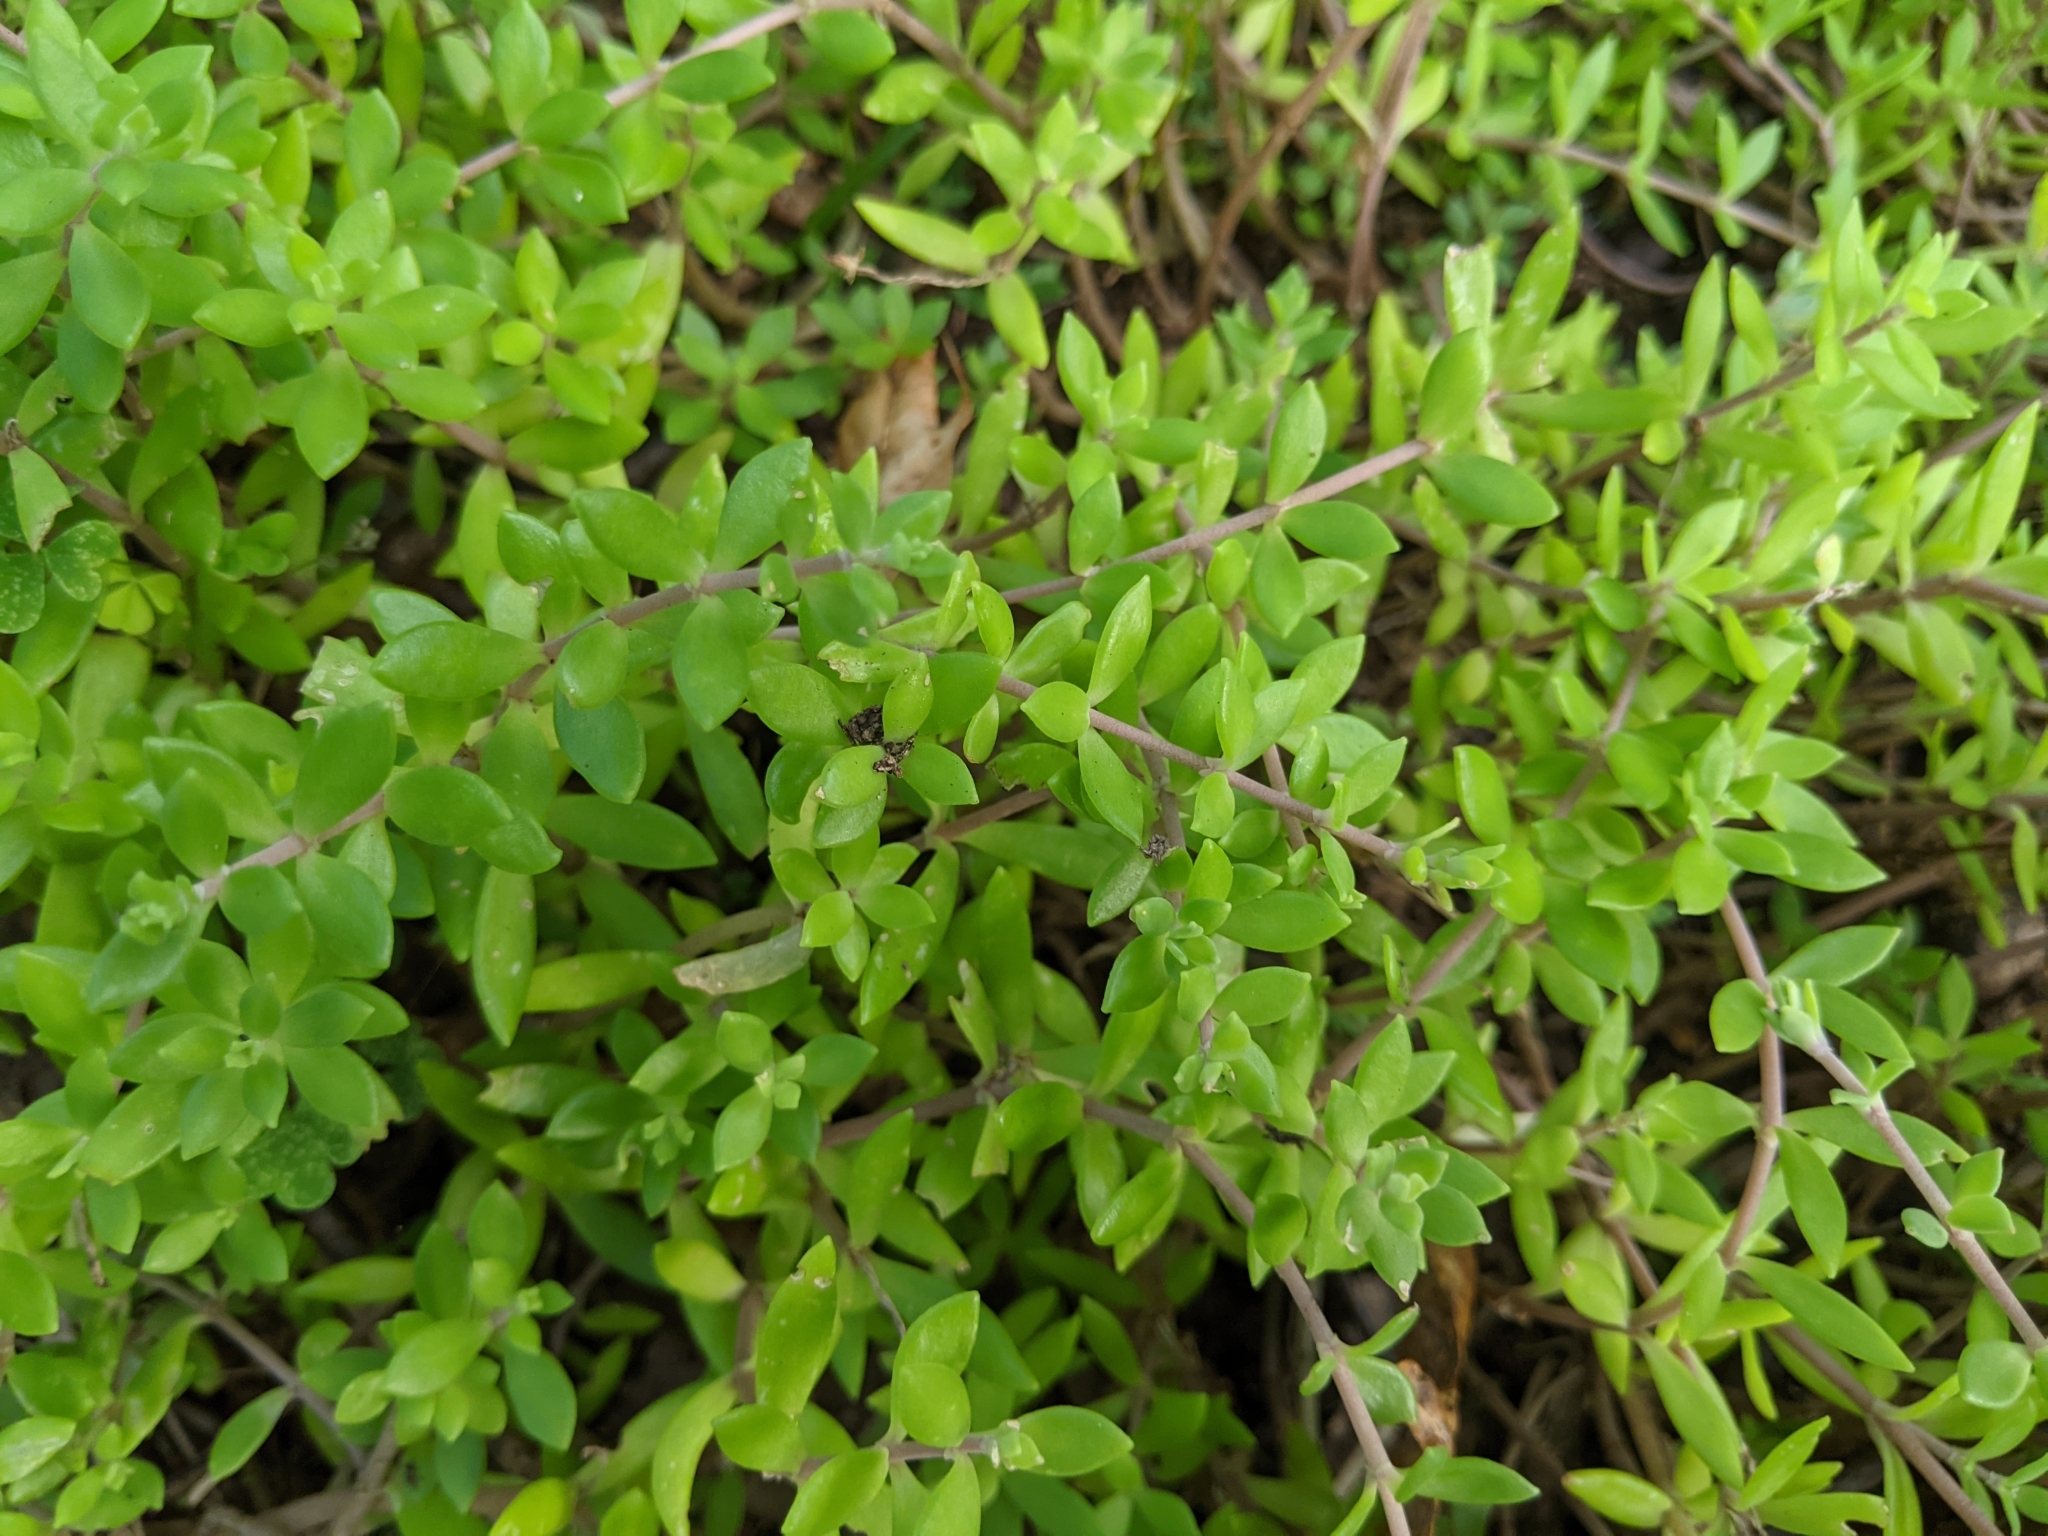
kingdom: Plantae
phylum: Tracheophyta
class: Magnoliopsida
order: Saxifragales
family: Crassulaceae
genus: Sedum
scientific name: Sedum sarmentosum
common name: Stringy stonecrop
